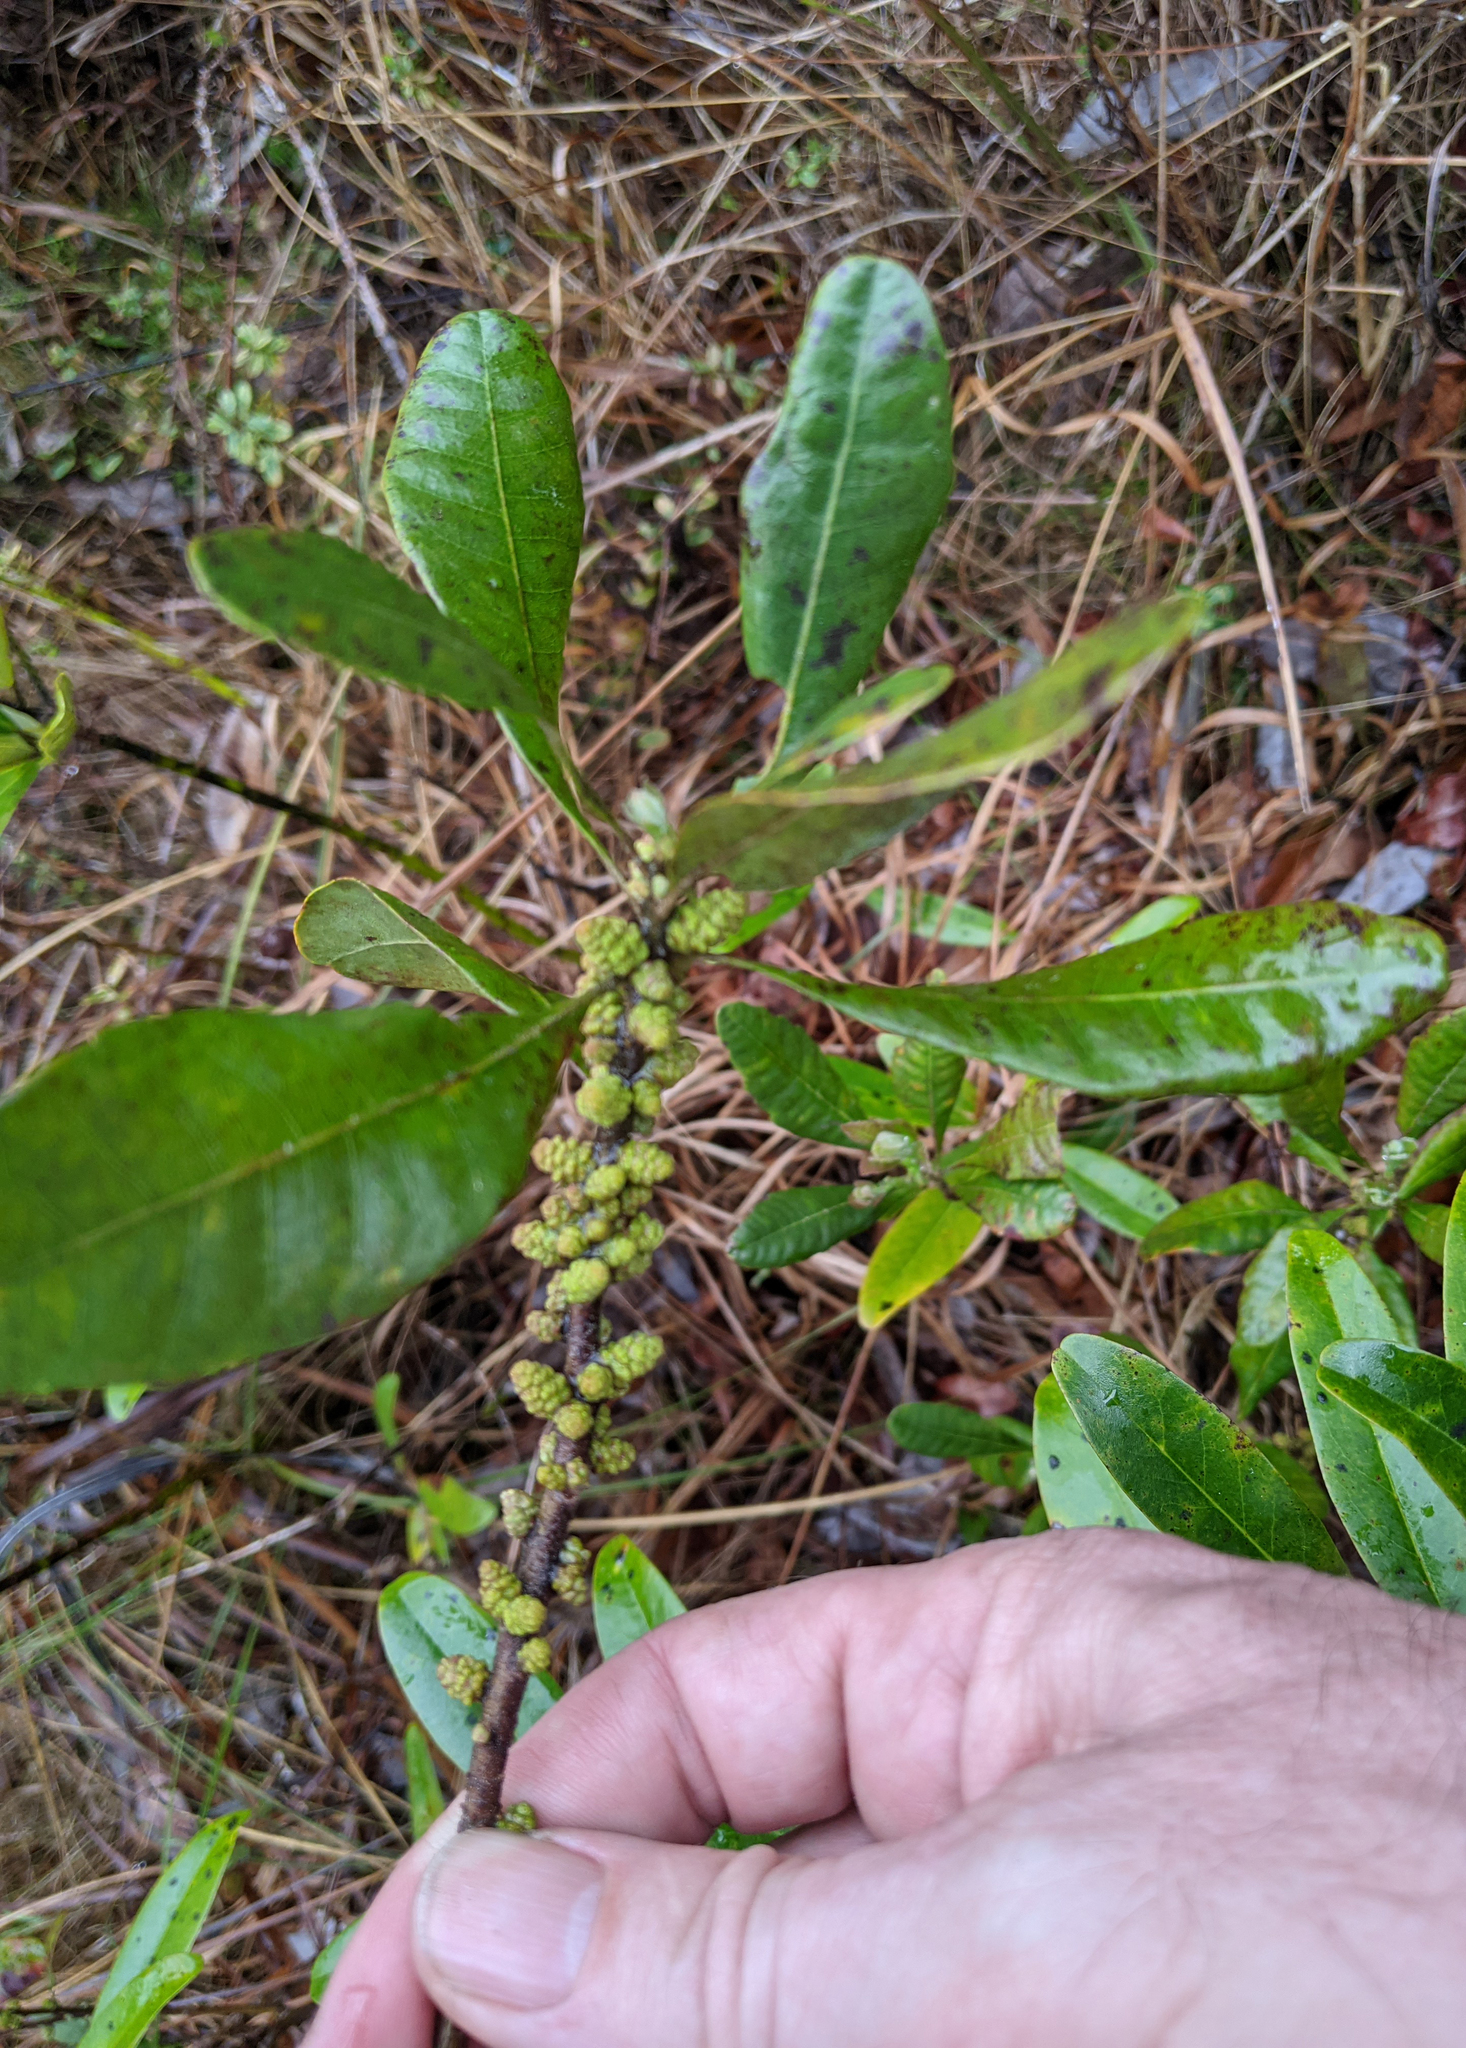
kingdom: Plantae
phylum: Tracheophyta
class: Magnoliopsida
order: Fagales
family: Myricaceae
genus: Morella
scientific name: Morella caroliniensis
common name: Evergreen bayberry
